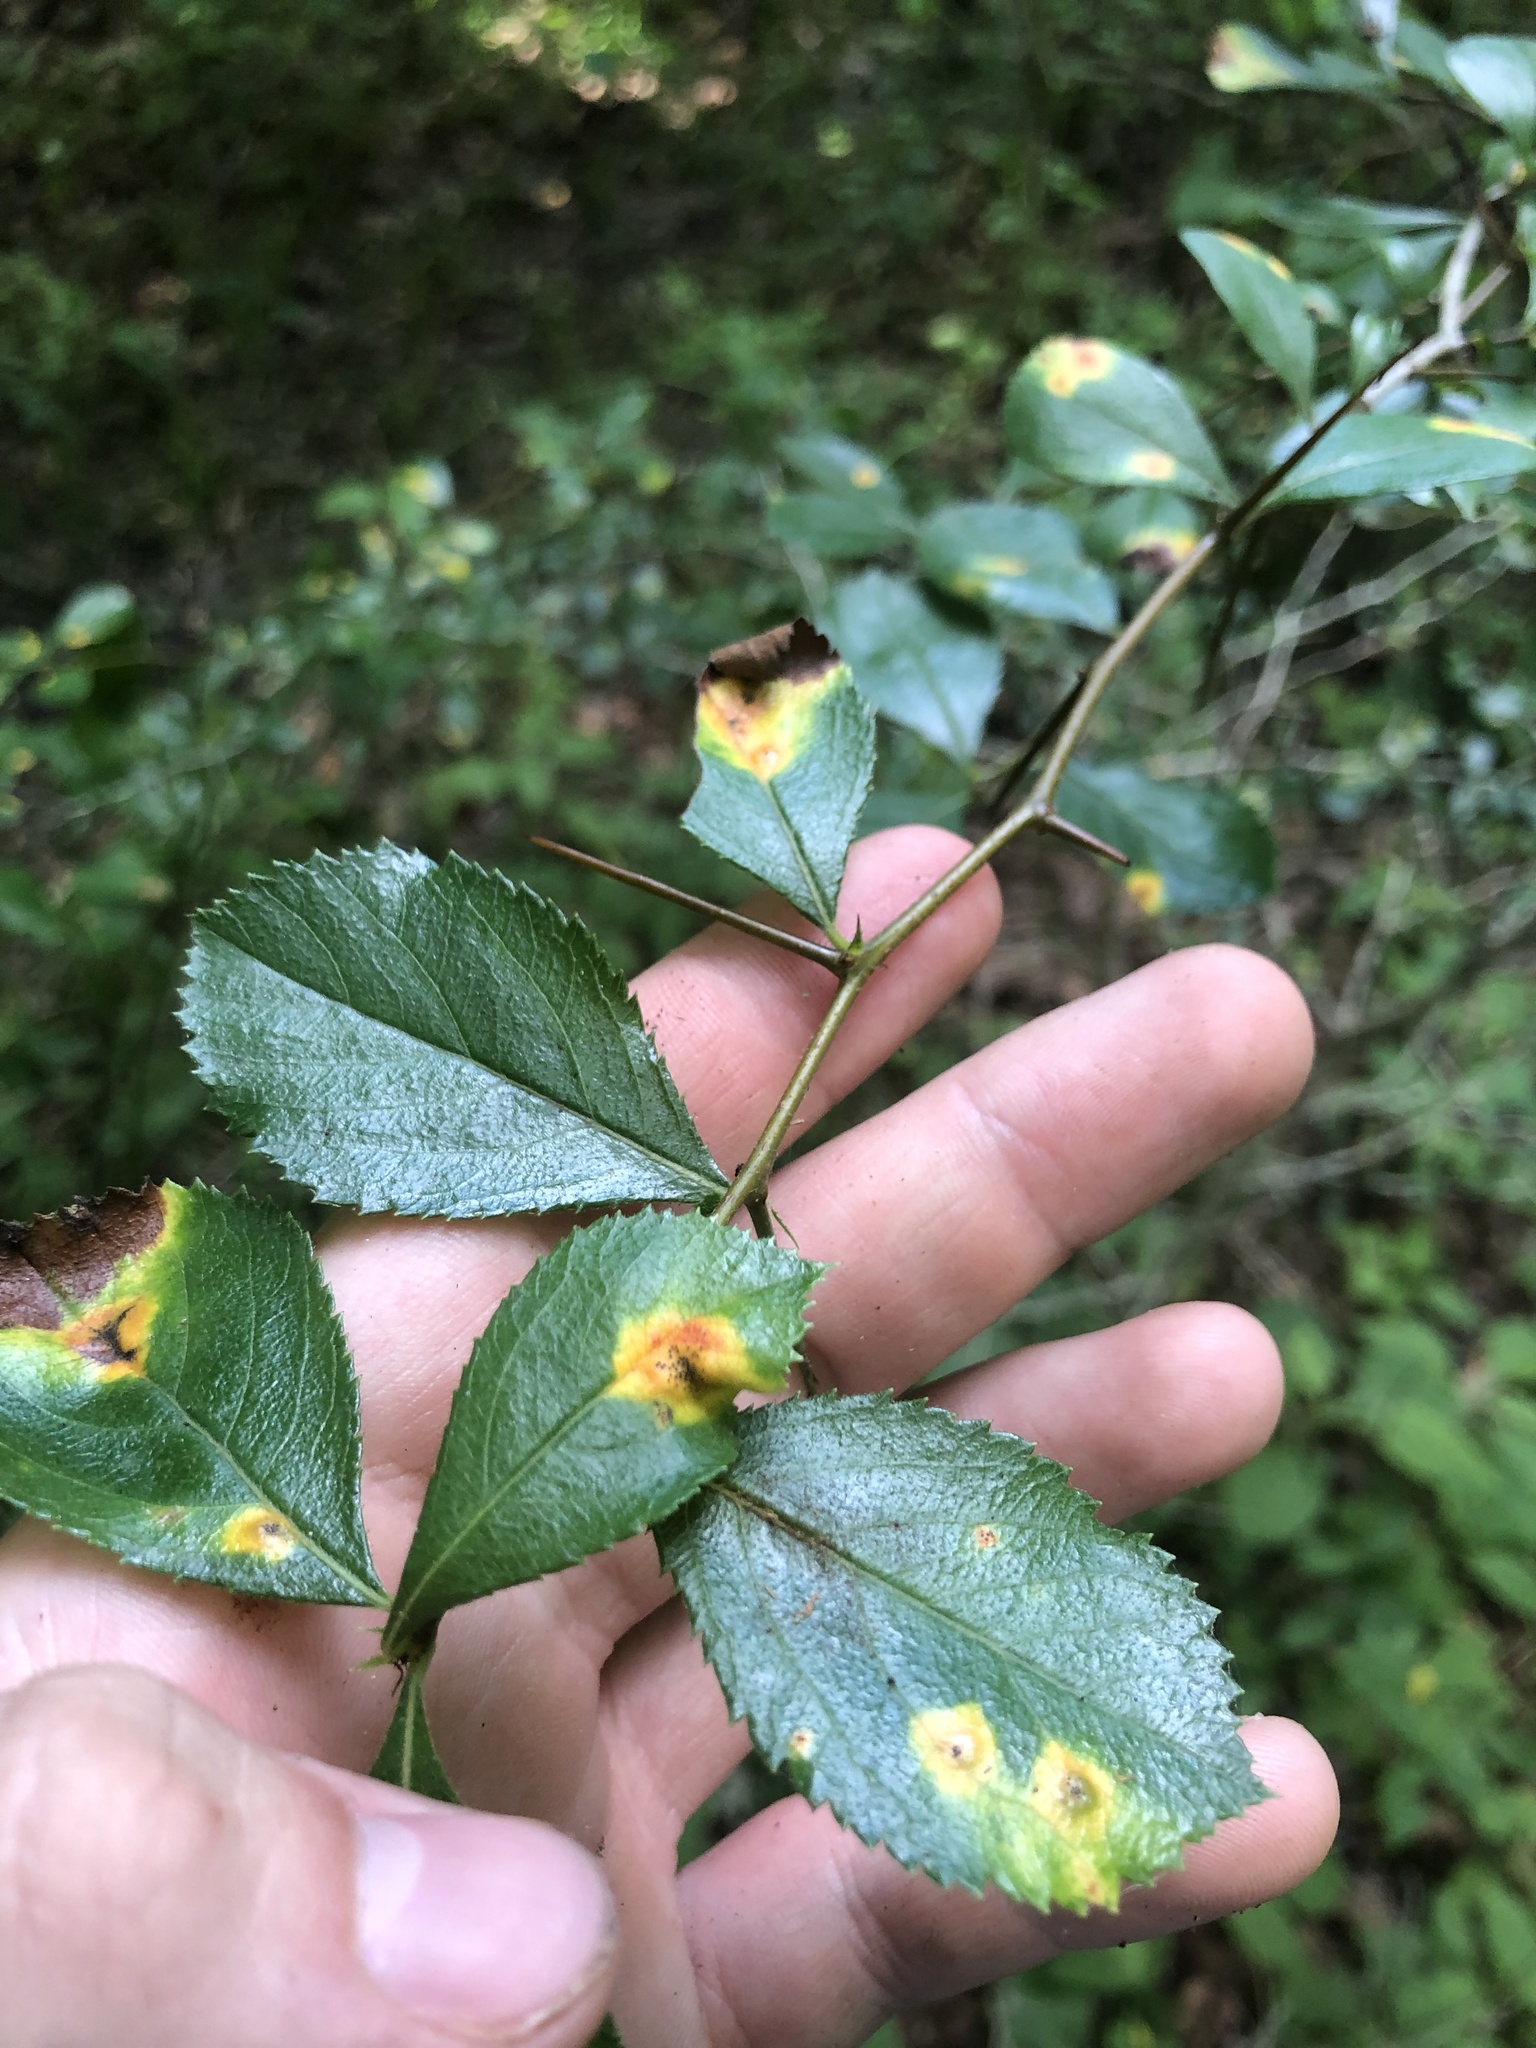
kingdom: Plantae
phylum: Tracheophyta
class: Magnoliopsida
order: Rosales
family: Rosaceae
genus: Crataegus
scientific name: Crataegus berberifolia
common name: Barberry hawthorn
